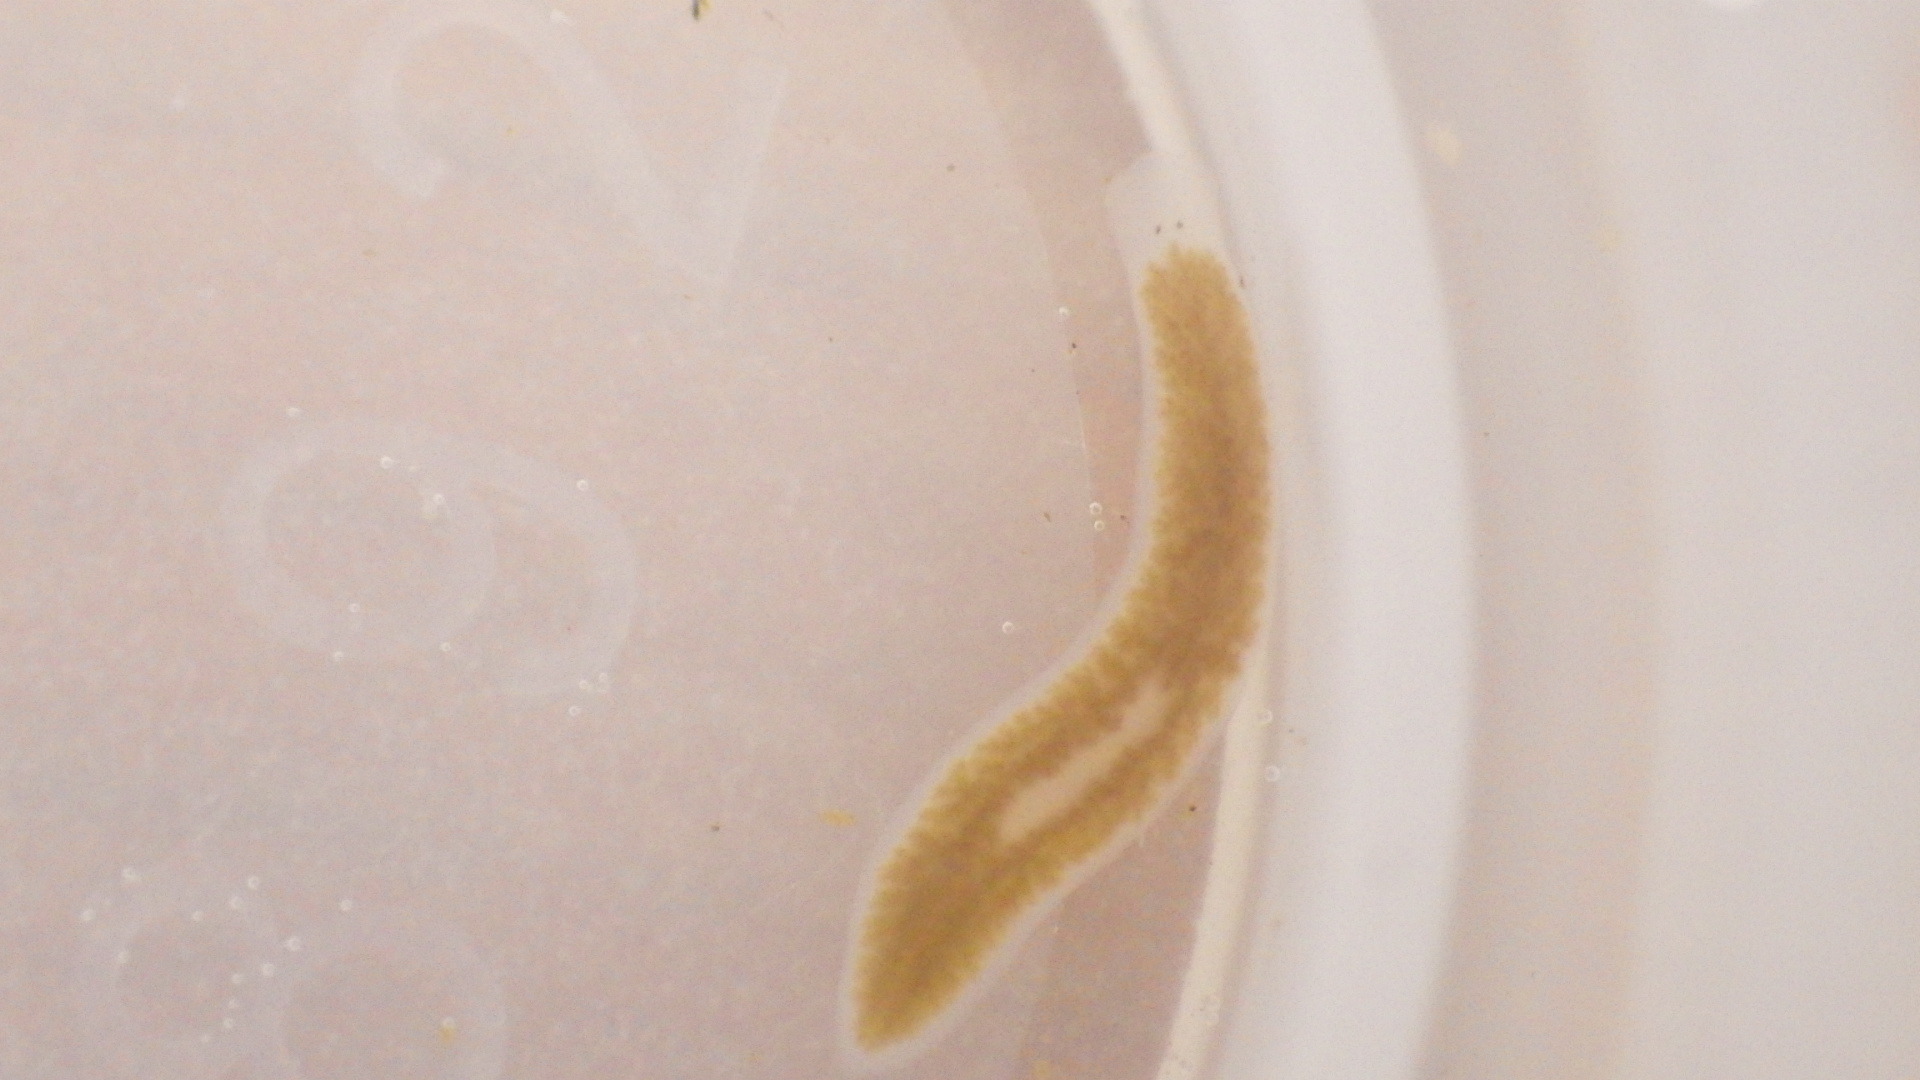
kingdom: Animalia
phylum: Platyhelminthes
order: Tricladida
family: Planariidae
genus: Phagocata
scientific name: Phagocata morgani
